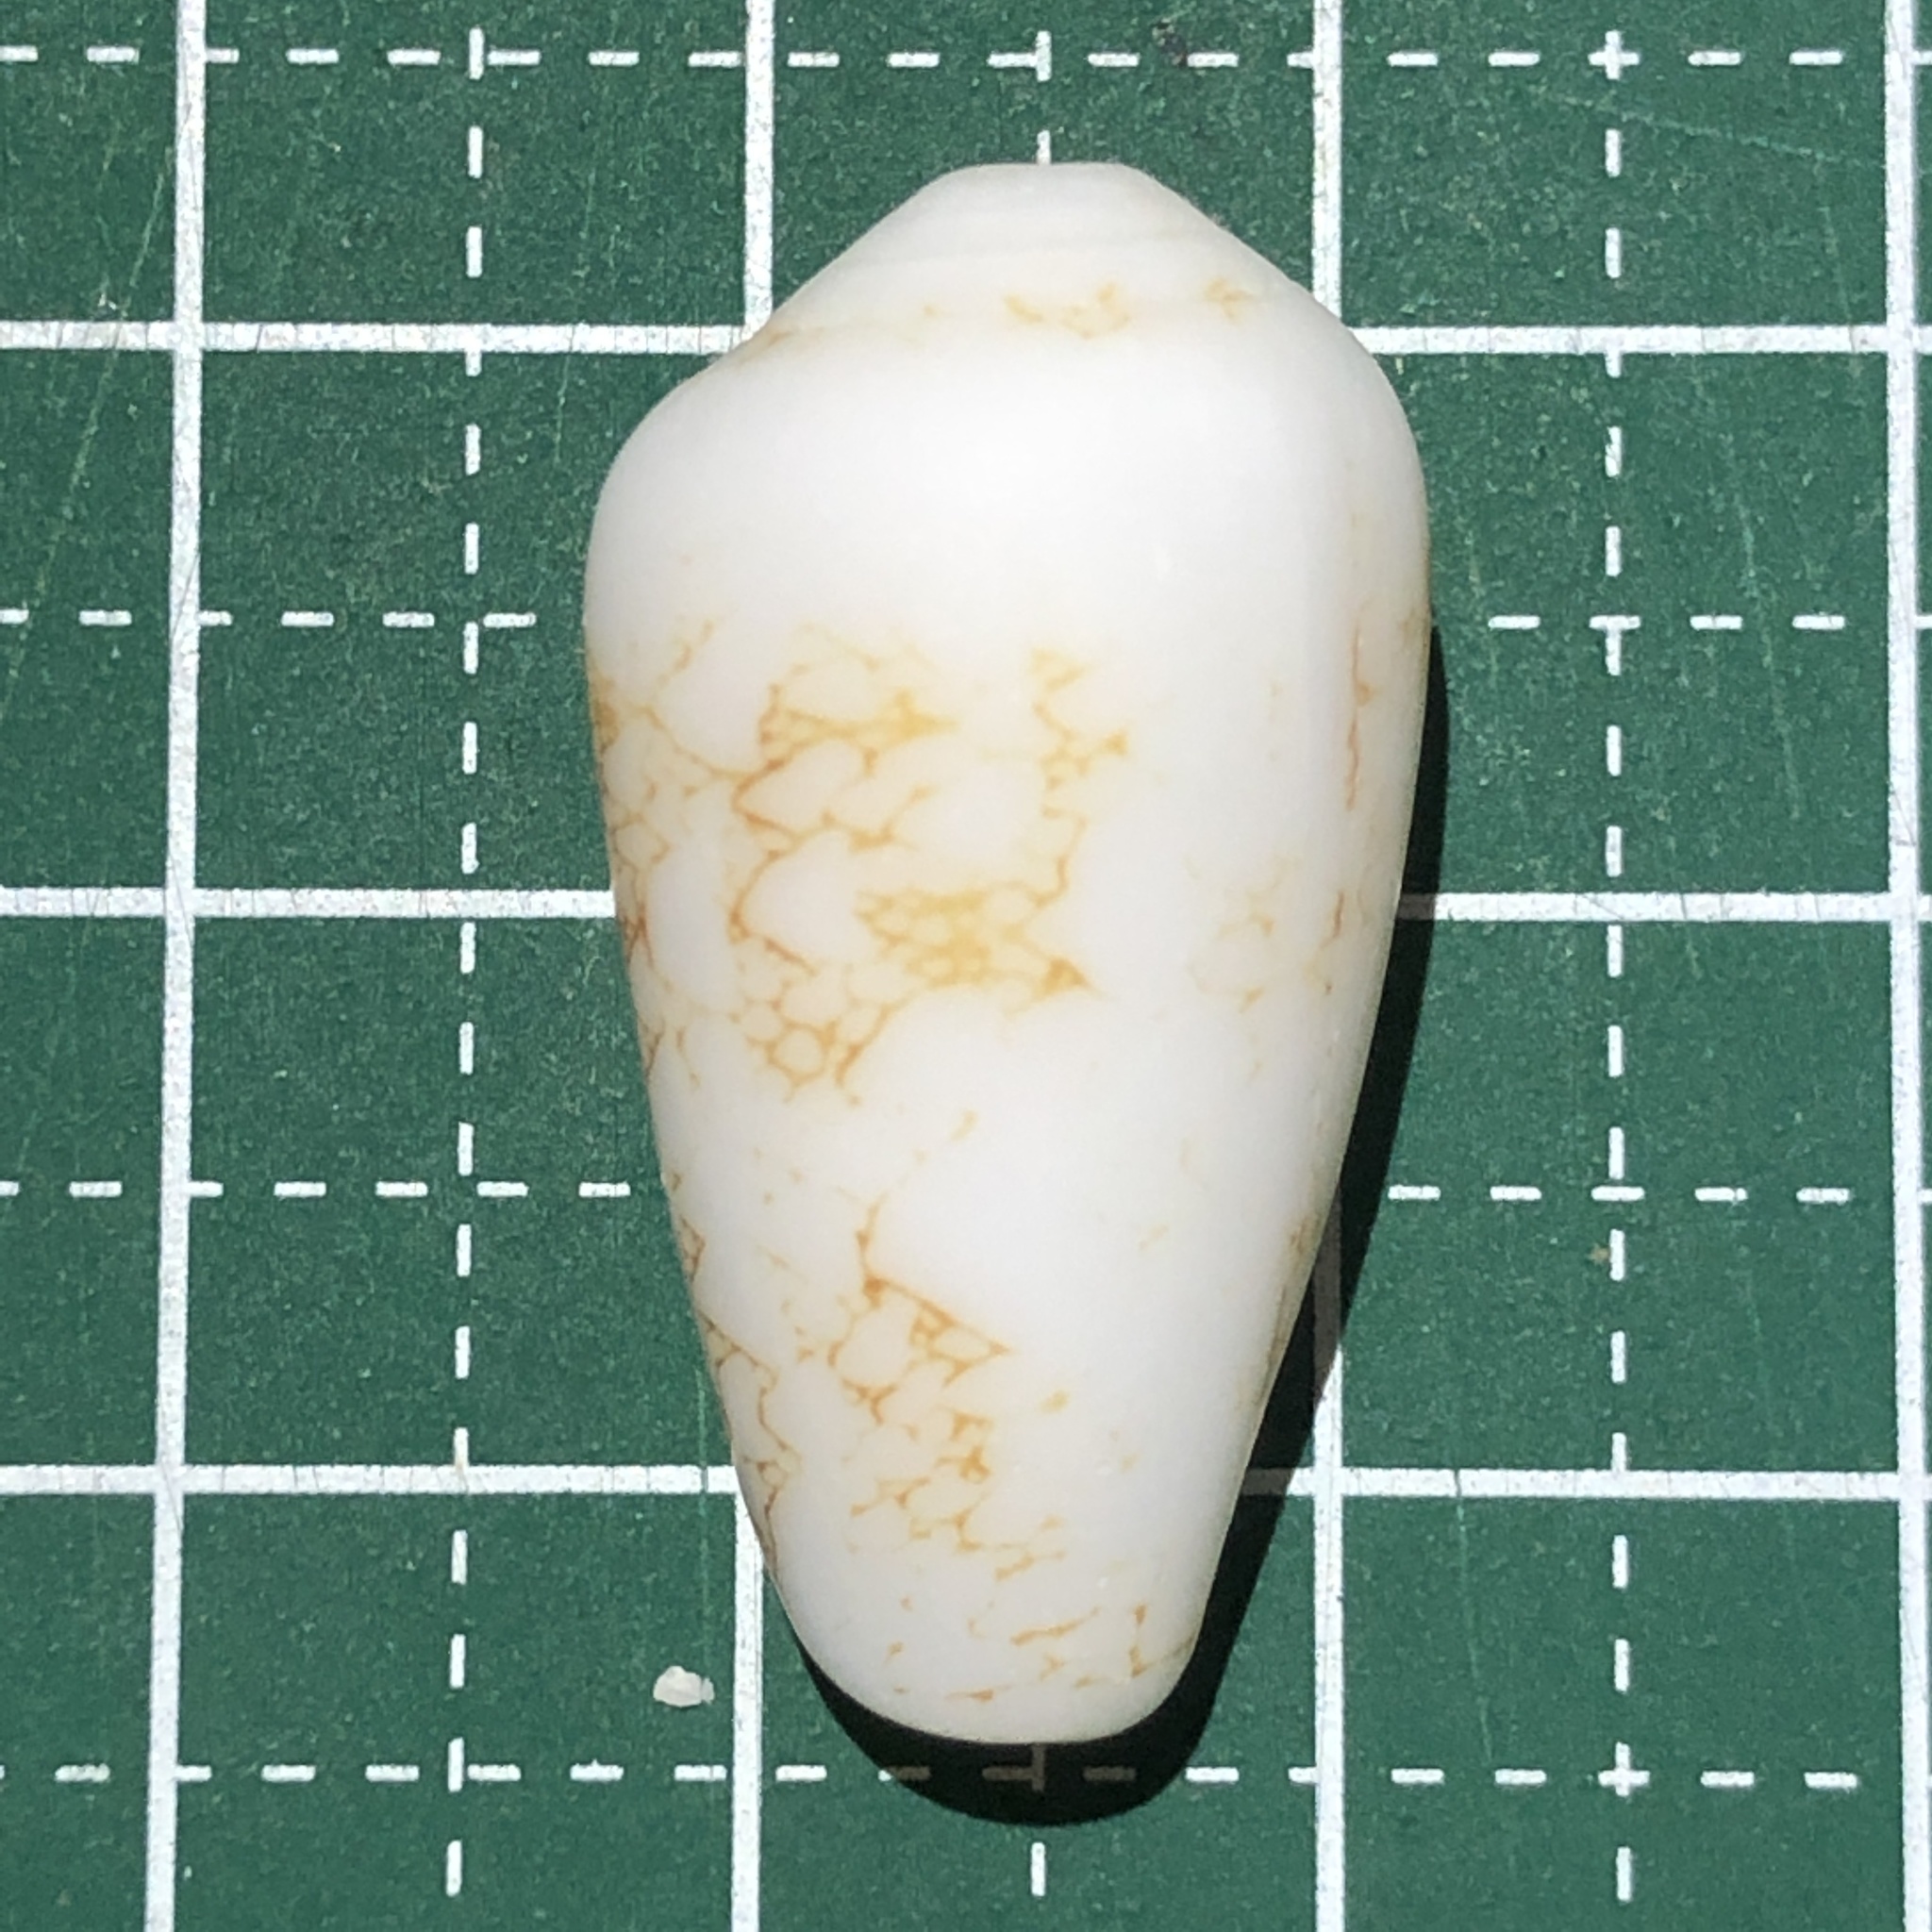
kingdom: Animalia
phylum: Mollusca
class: Gastropoda
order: Neogastropoda
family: Conidae
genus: Conus
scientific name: Conus omaria
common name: Omaria cone
